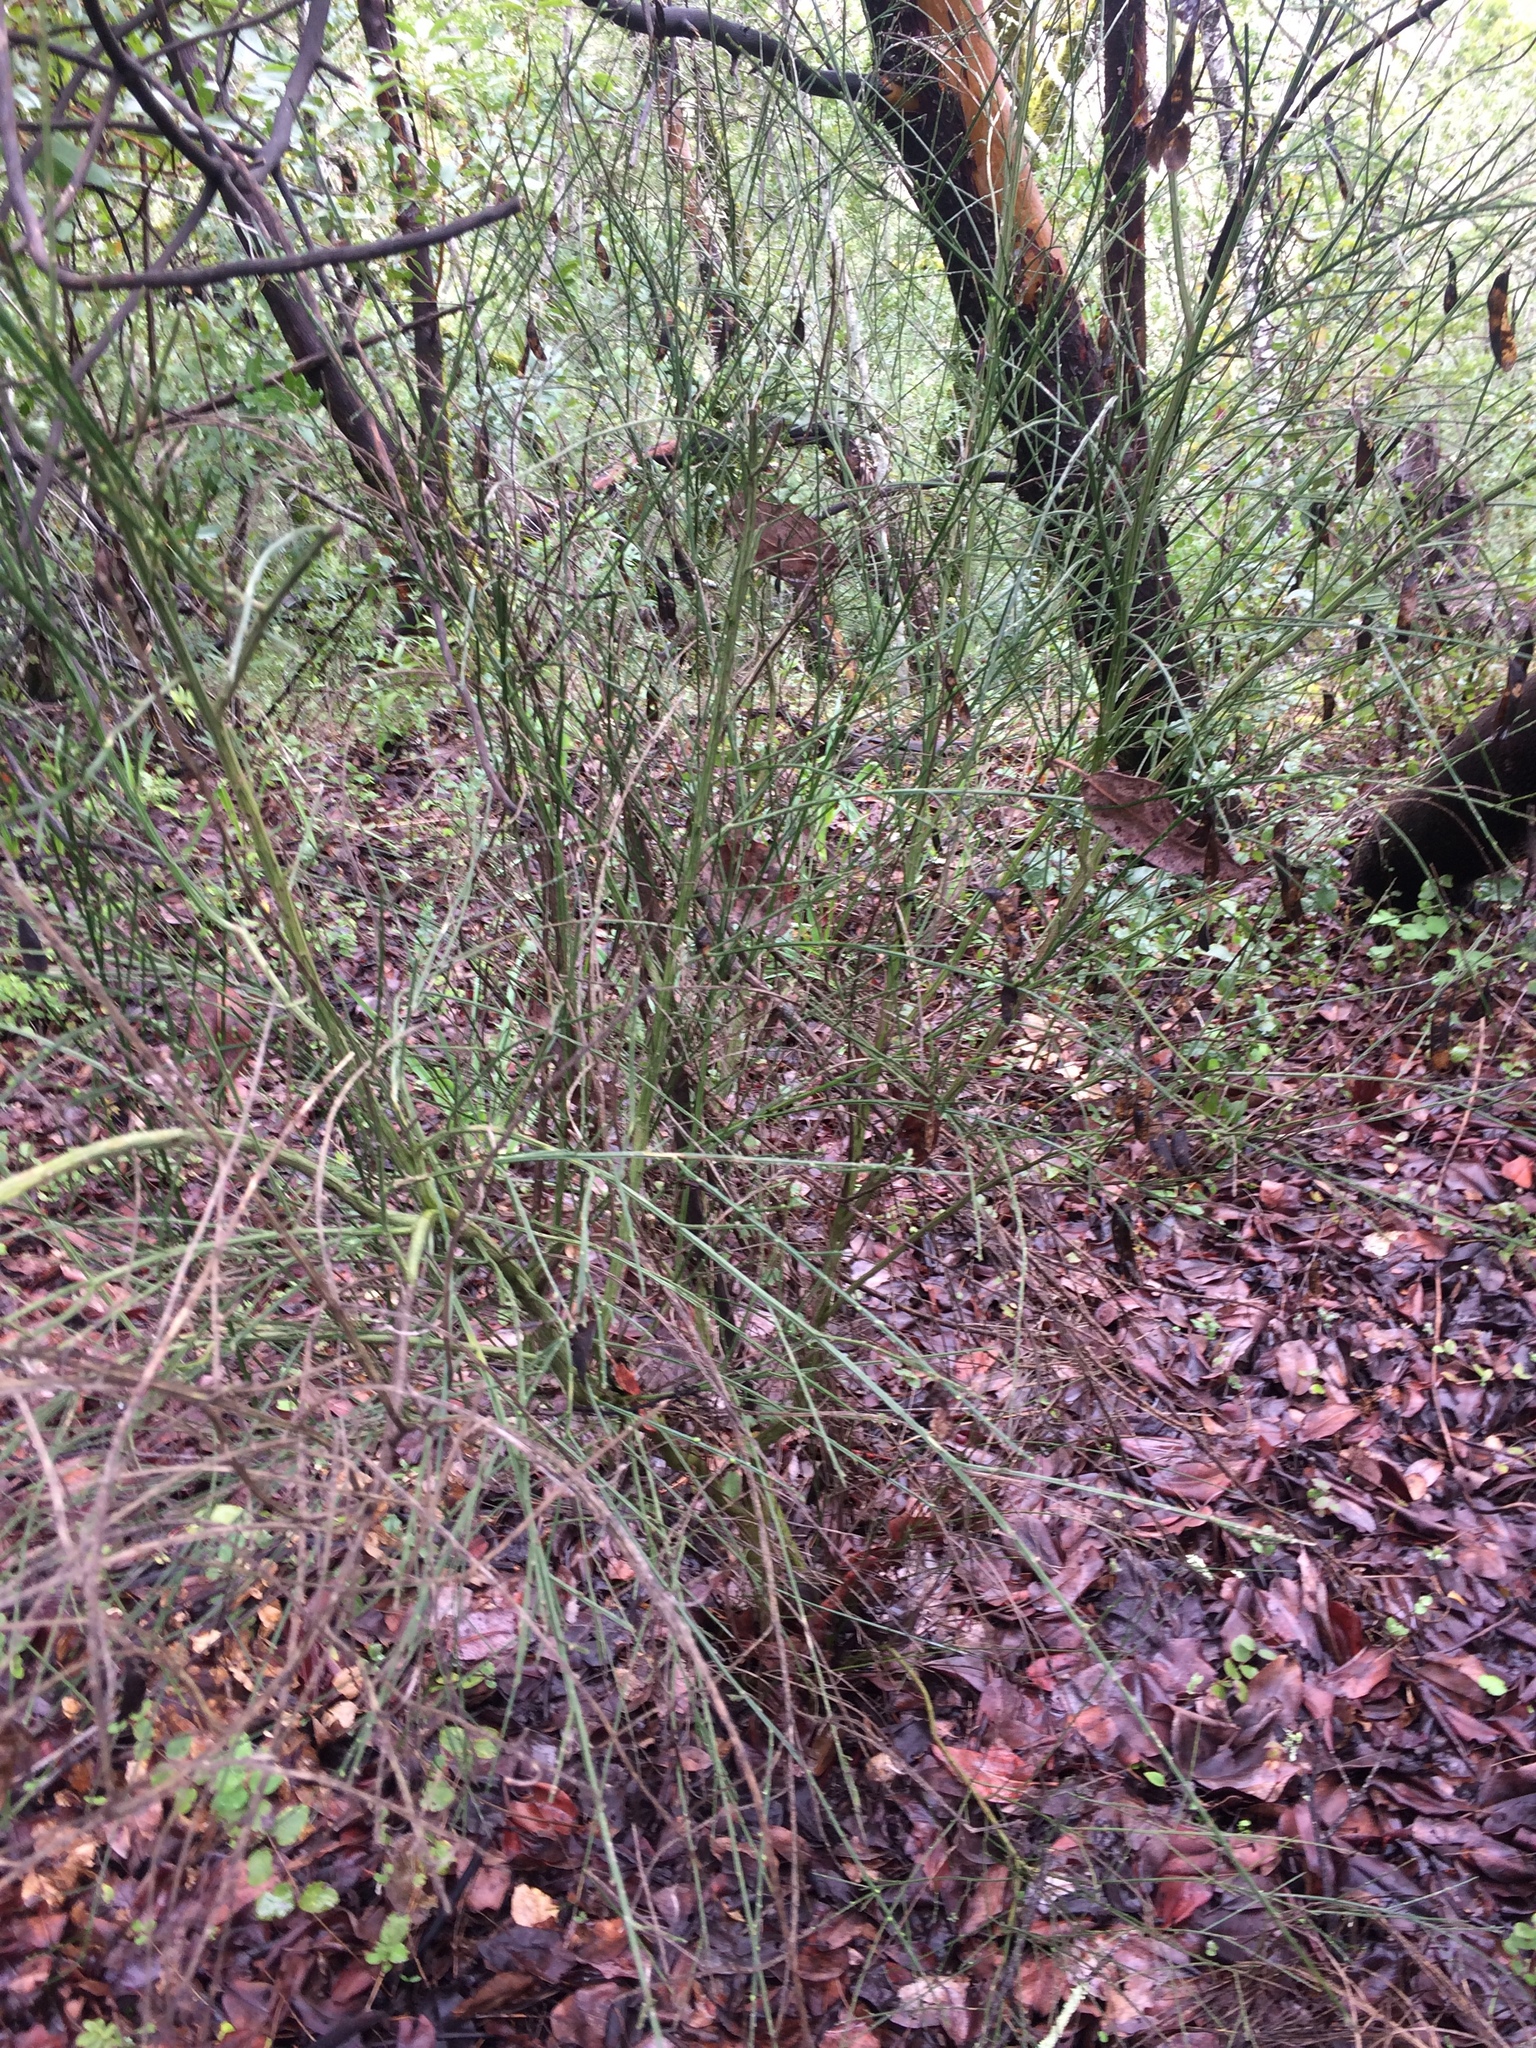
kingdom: Plantae
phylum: Tracheophyta
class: Magnoliopsida
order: Fabales
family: Fabaceae
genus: Cytisus
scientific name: Cytisus scoparius
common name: Scotch broom
